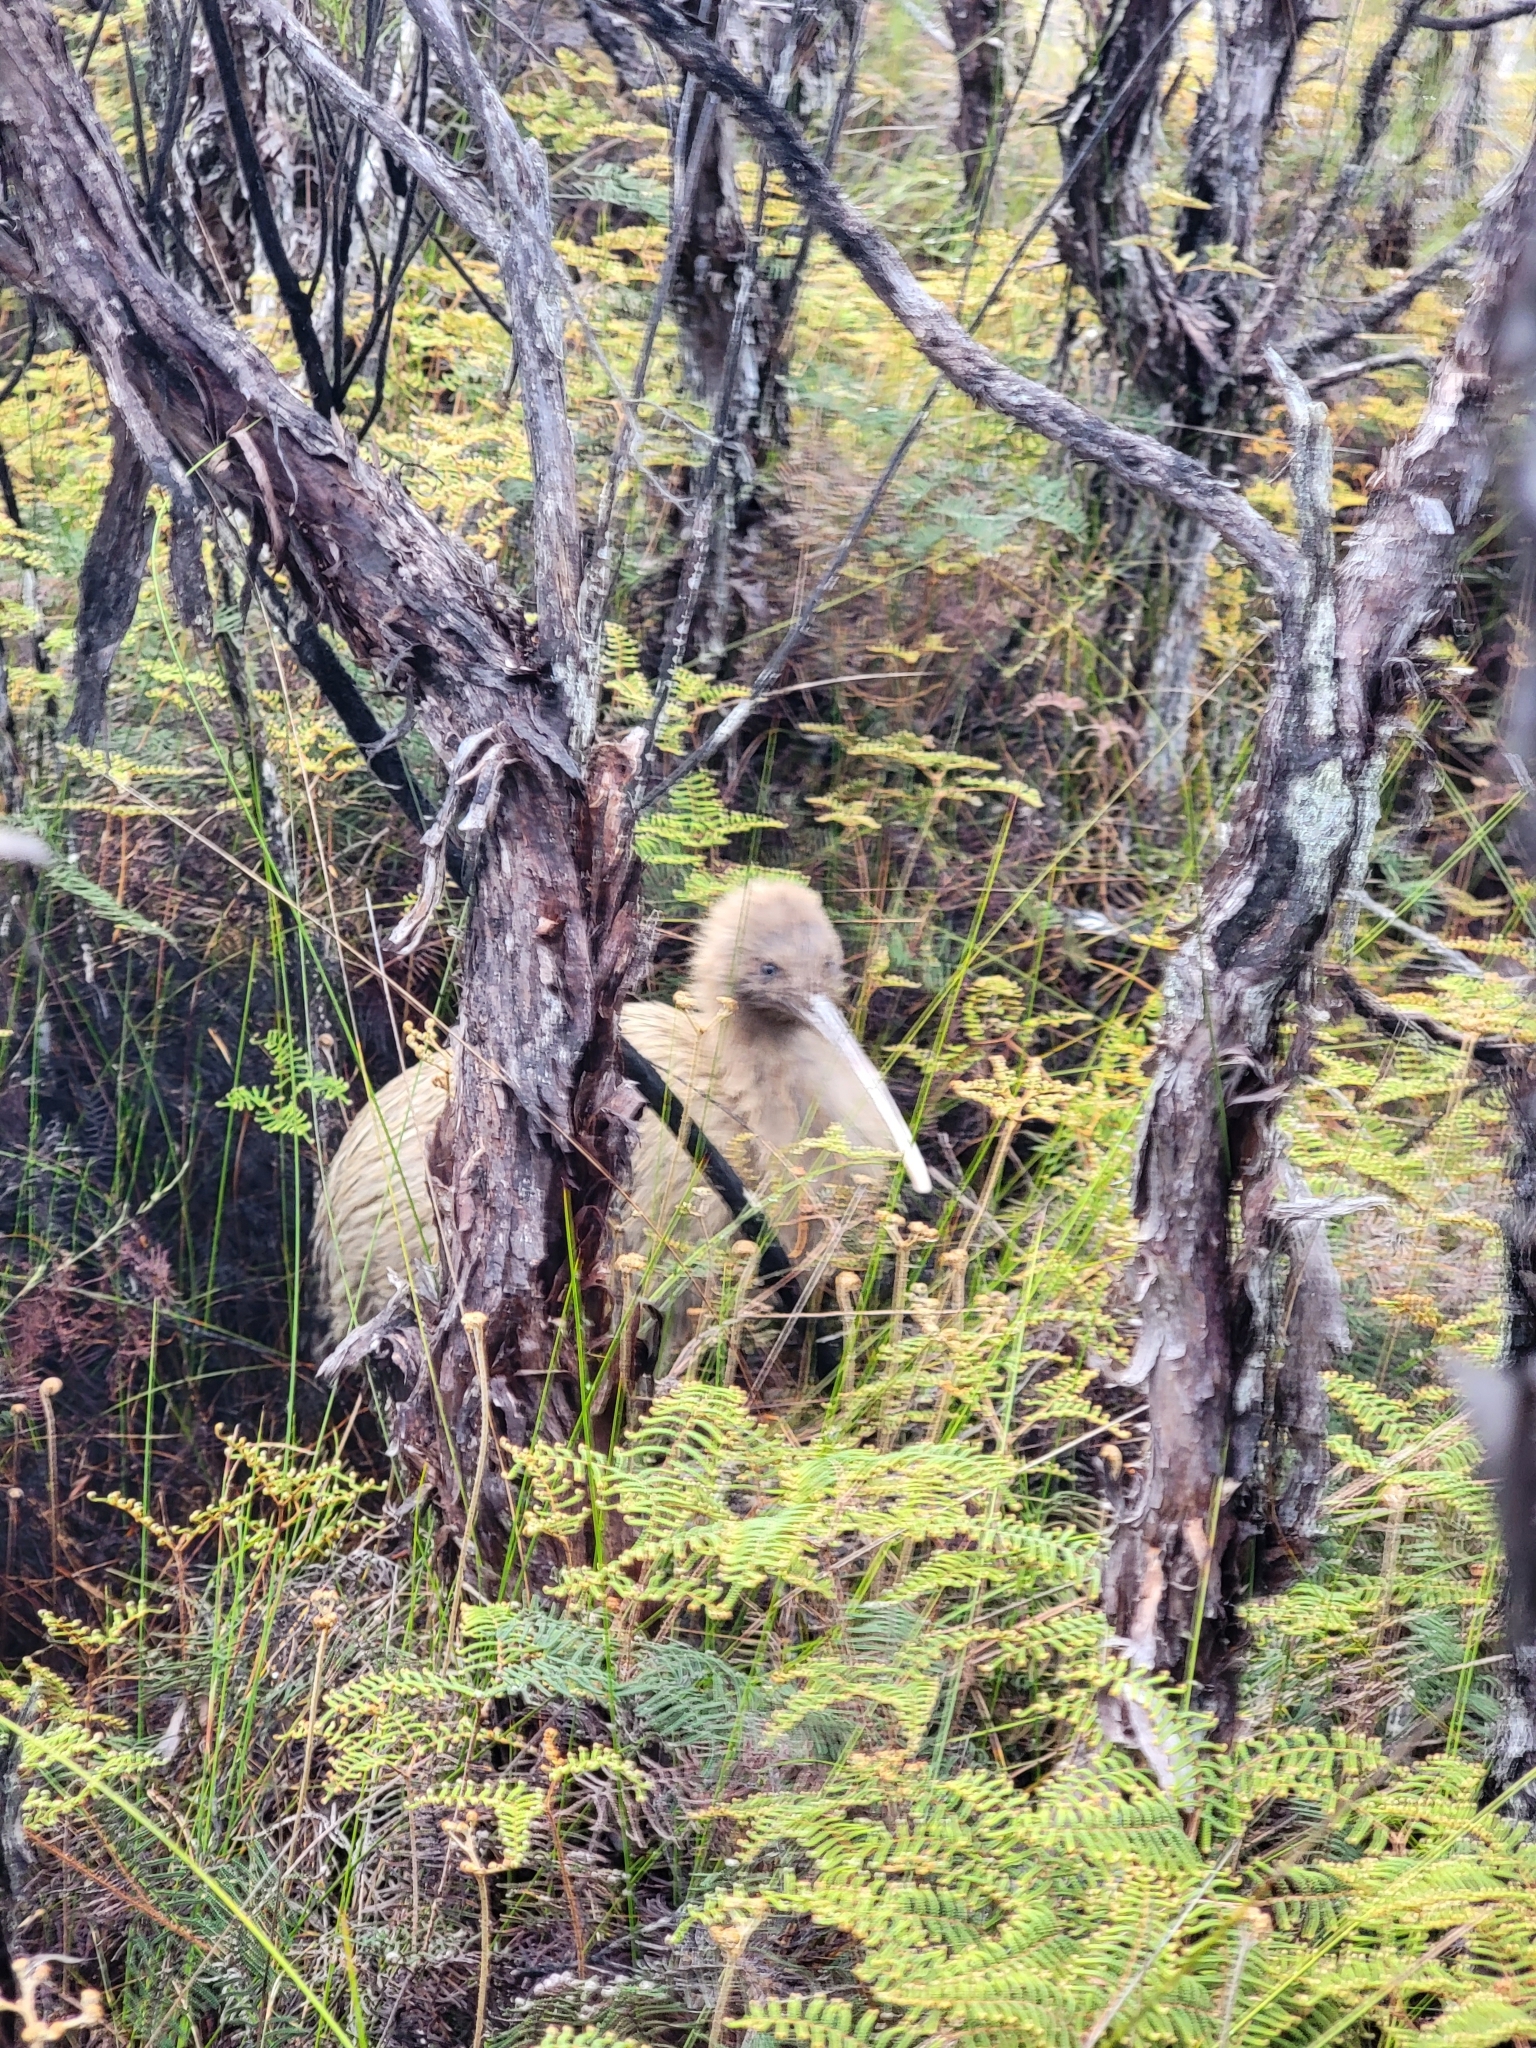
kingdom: Animalia
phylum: Chordata
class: Aves
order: Apterygiformes
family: Apterygidae
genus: Apteryx
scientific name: Apteryx australis
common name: Southern brown kiwi
